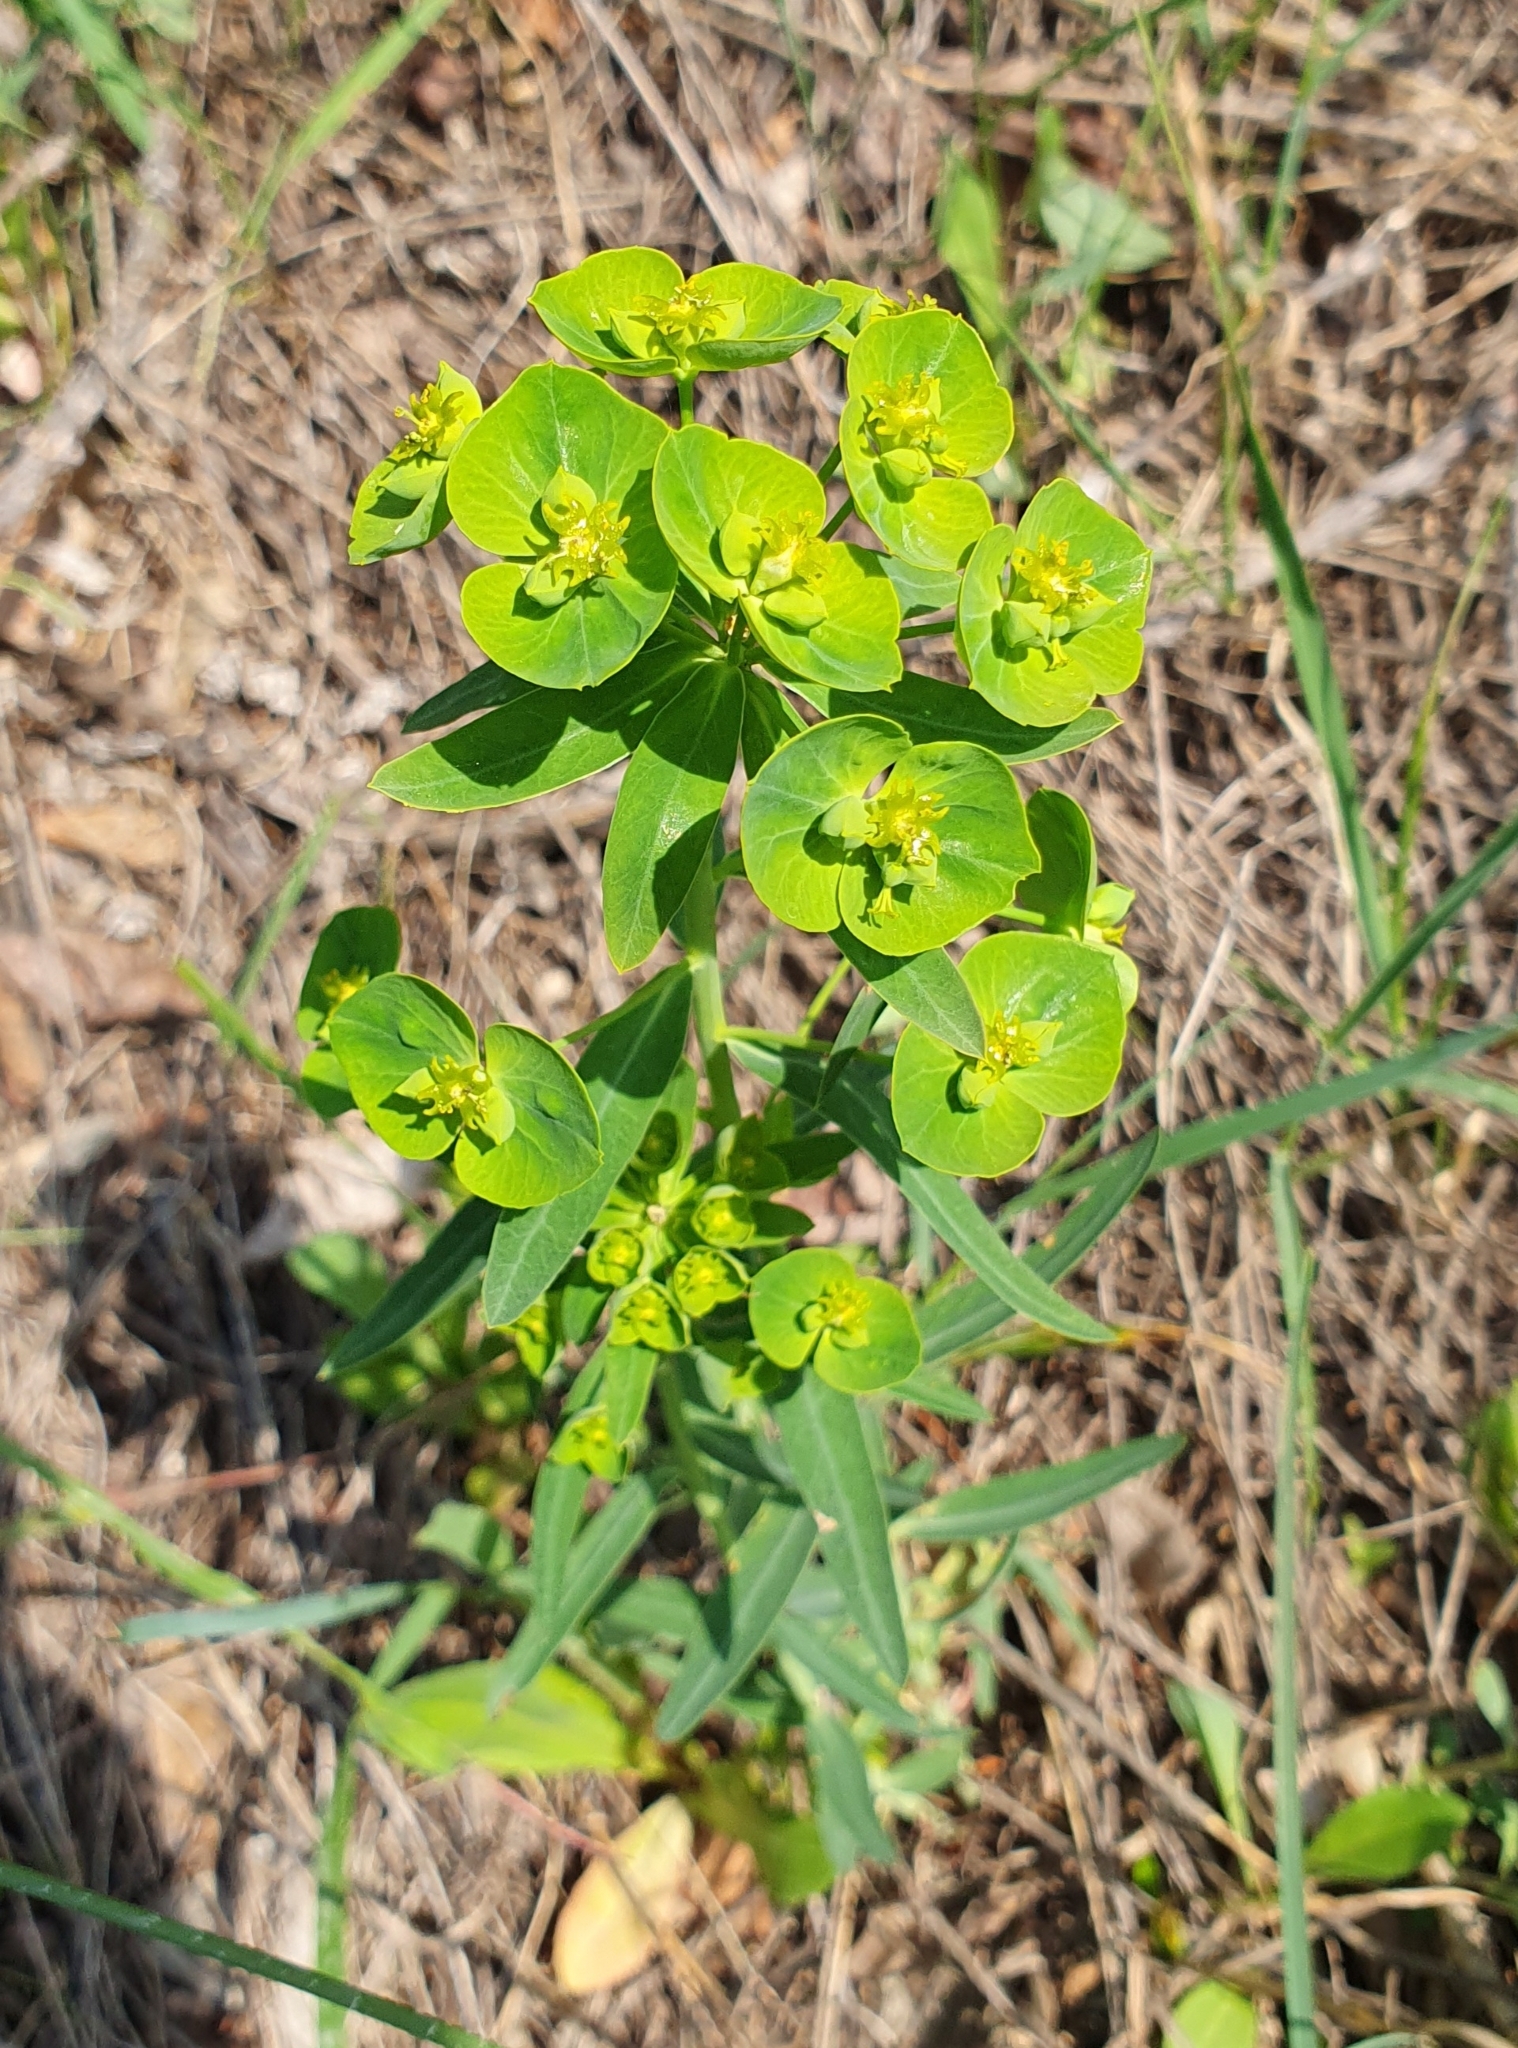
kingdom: Plantae
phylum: Tracheophyta
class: Magnoliopsida
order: Malpighiales
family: Euphorbiaceae
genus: Euphorbia
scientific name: Euphorbia esula
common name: Leafy spurge
